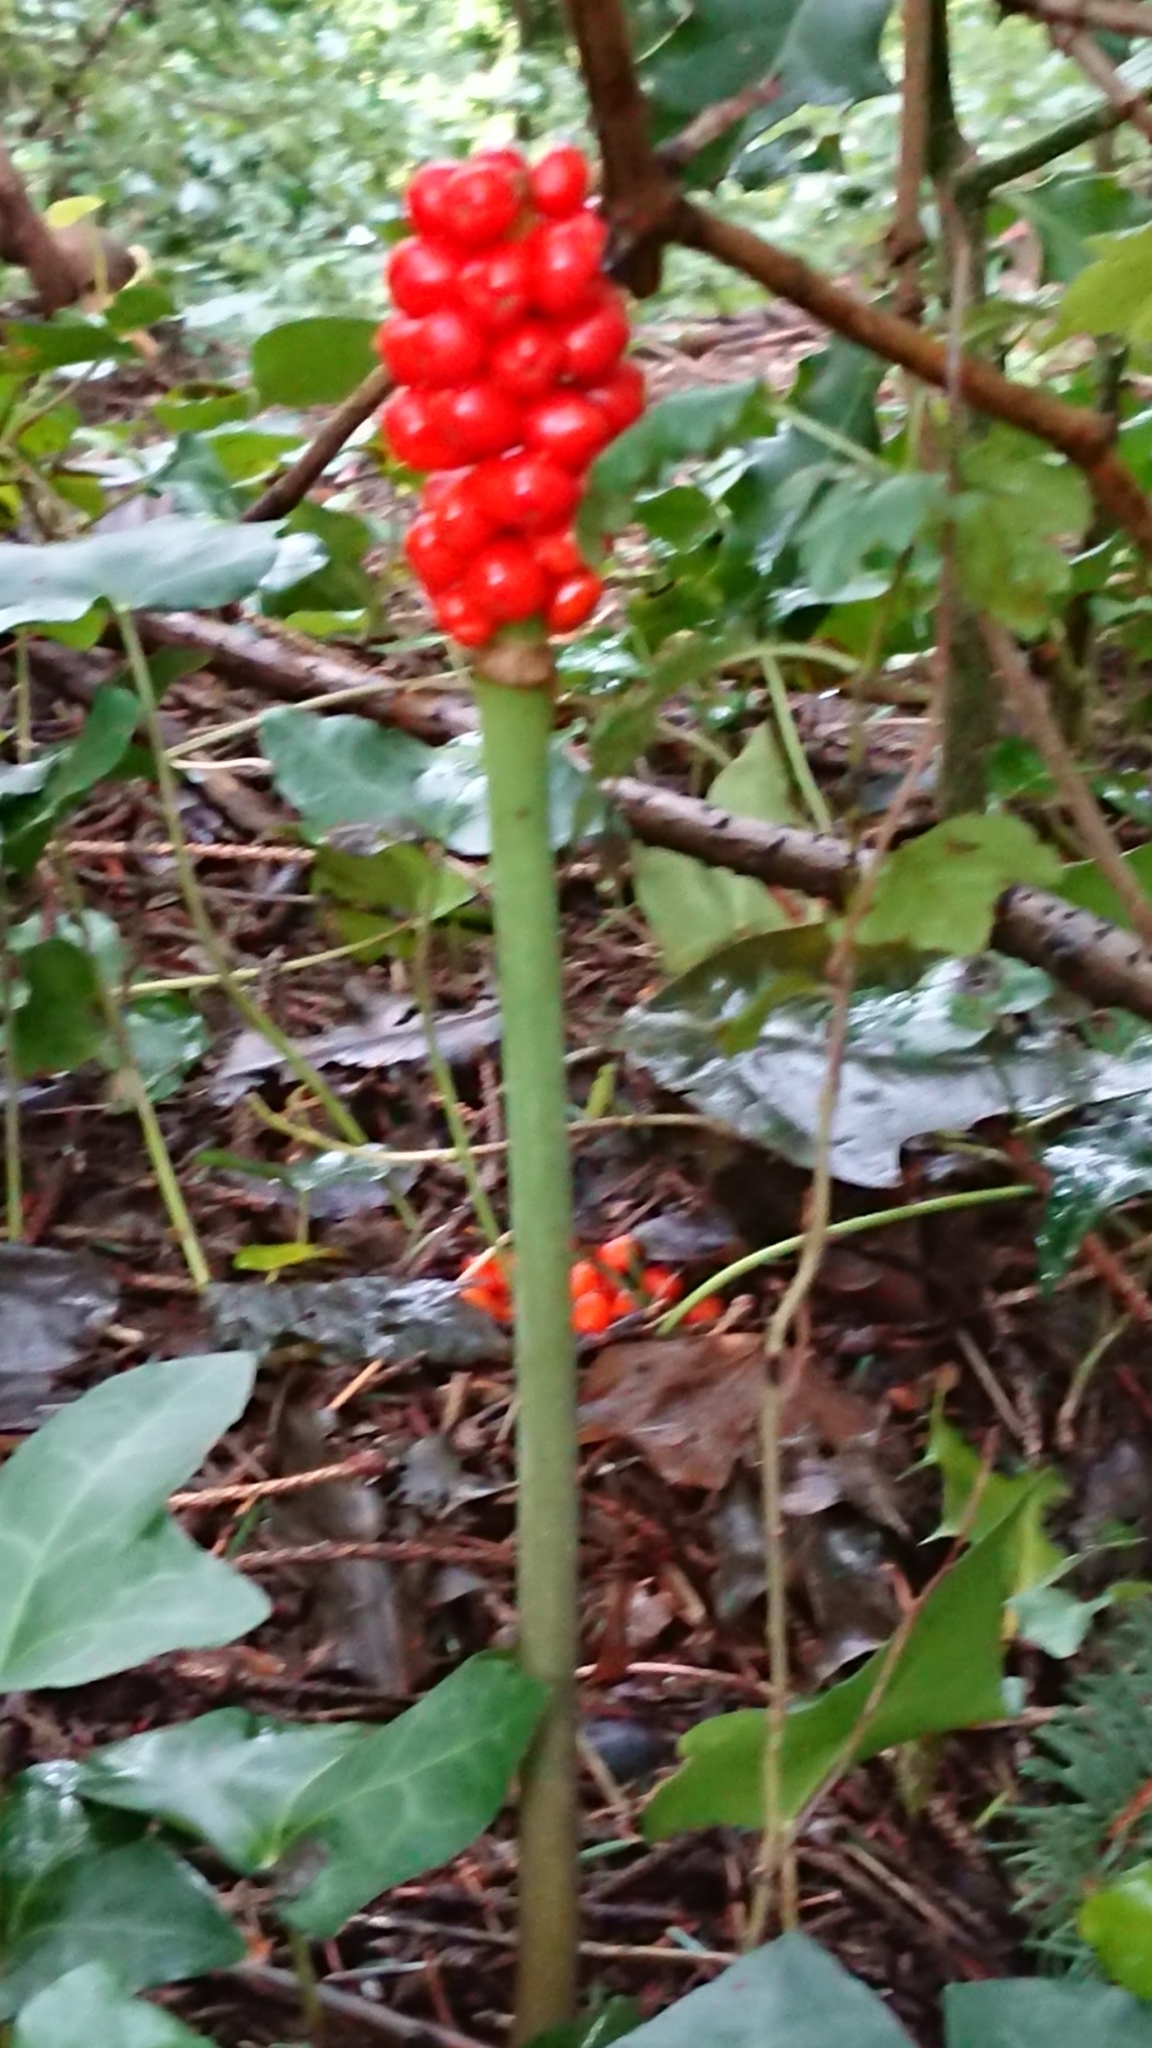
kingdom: Plantae
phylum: Tracheophyta
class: Liliopsida
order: Alismatales
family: Araceae
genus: Arum
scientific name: Arum maculatum
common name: Lords-and-ladies
